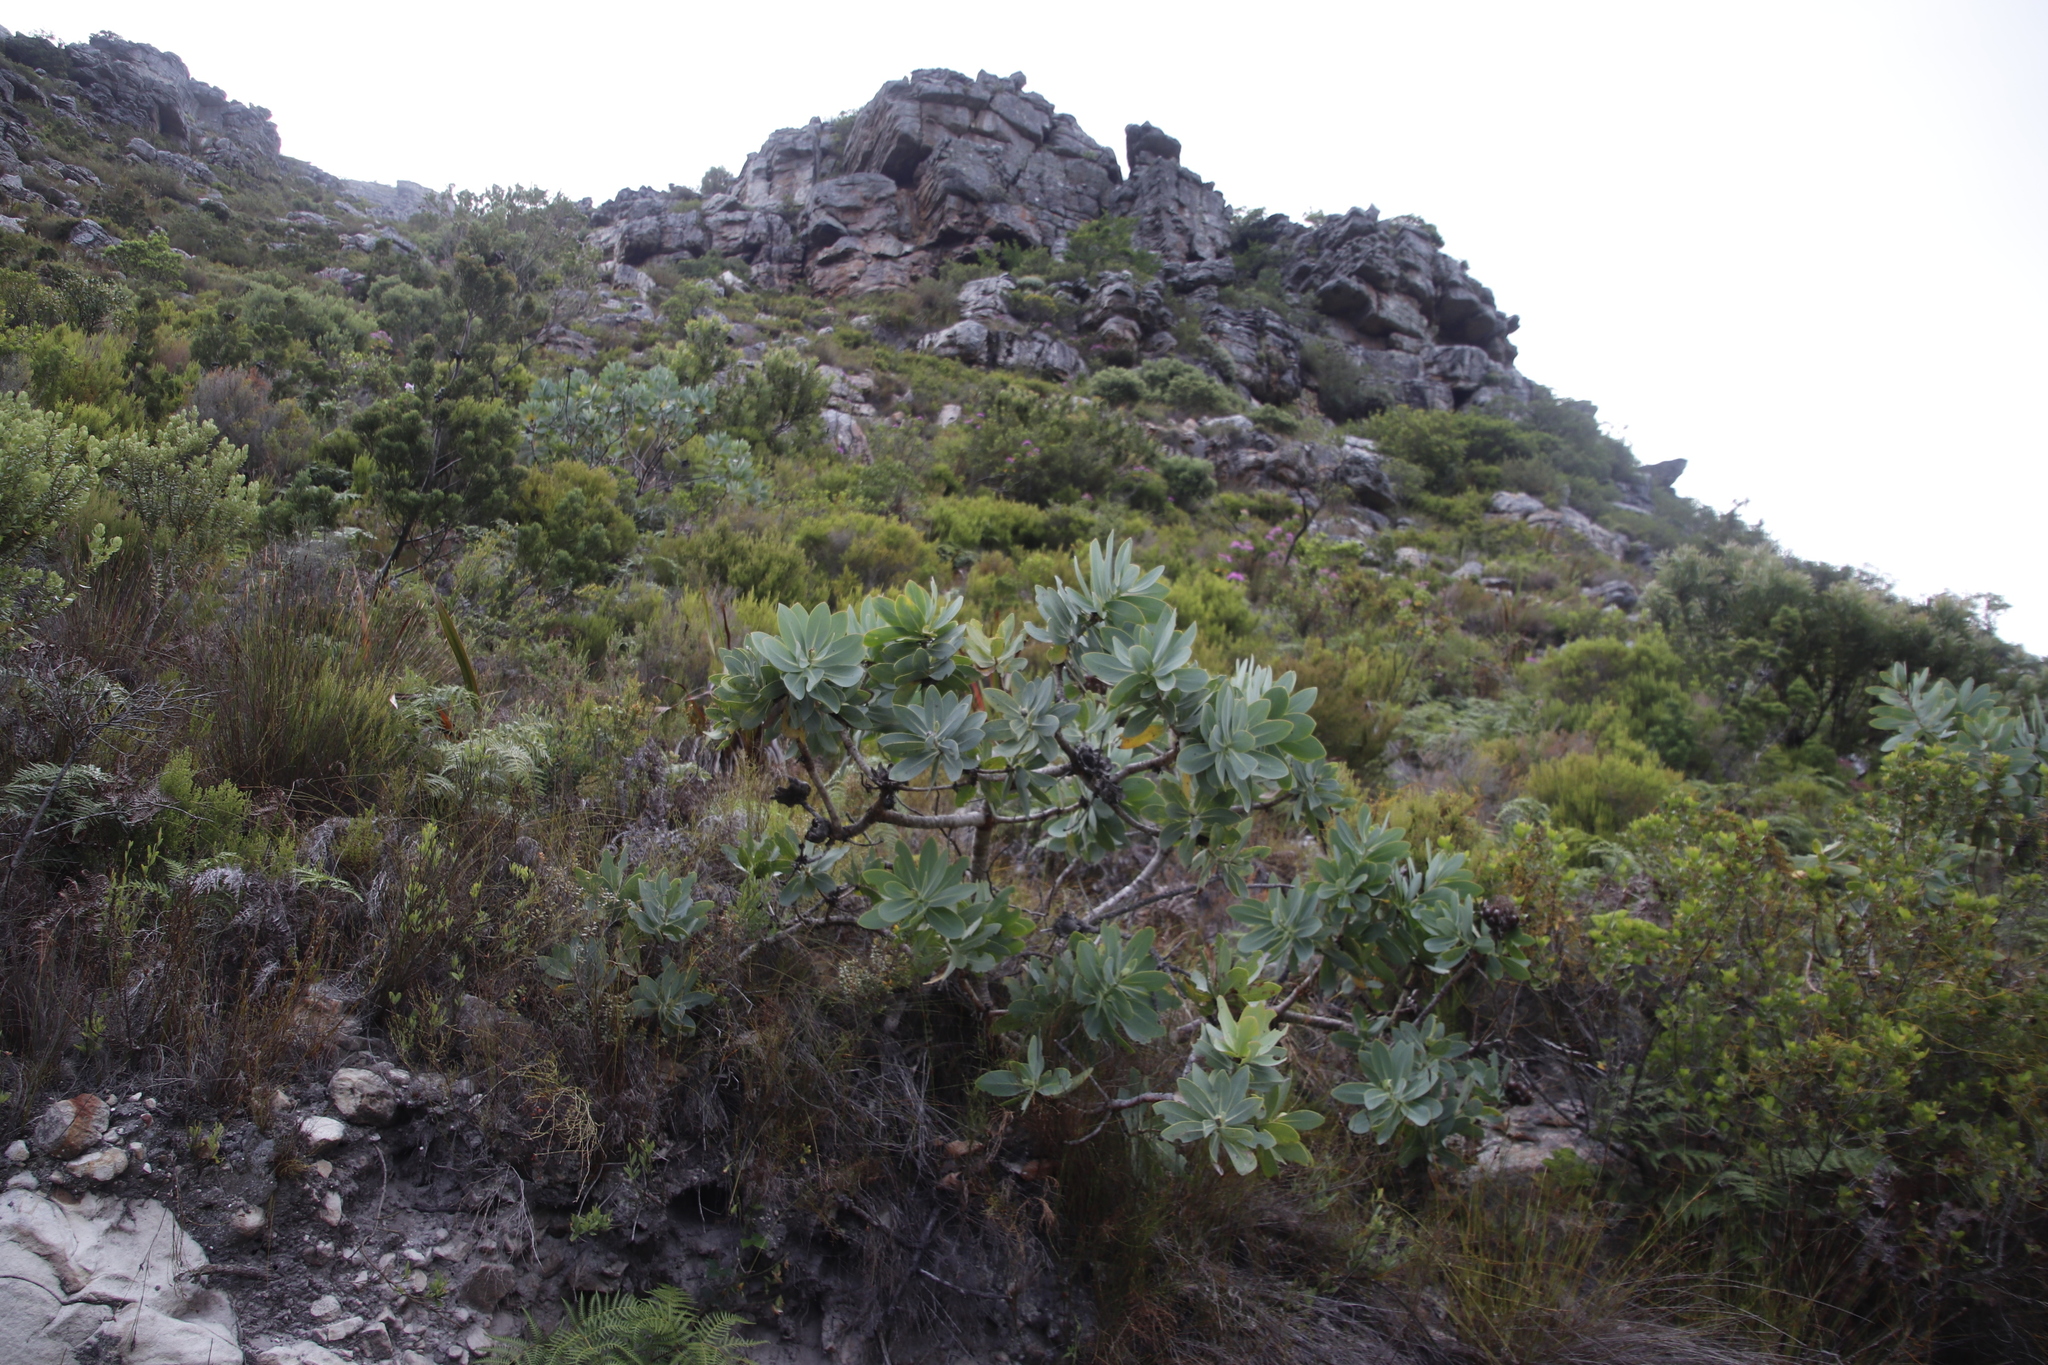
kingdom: Plantae
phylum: Tracheophyta
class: Magnoliopsida
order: Proteales
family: Proteaceae
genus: Protea
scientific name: Protea nitida
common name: Tree protea
